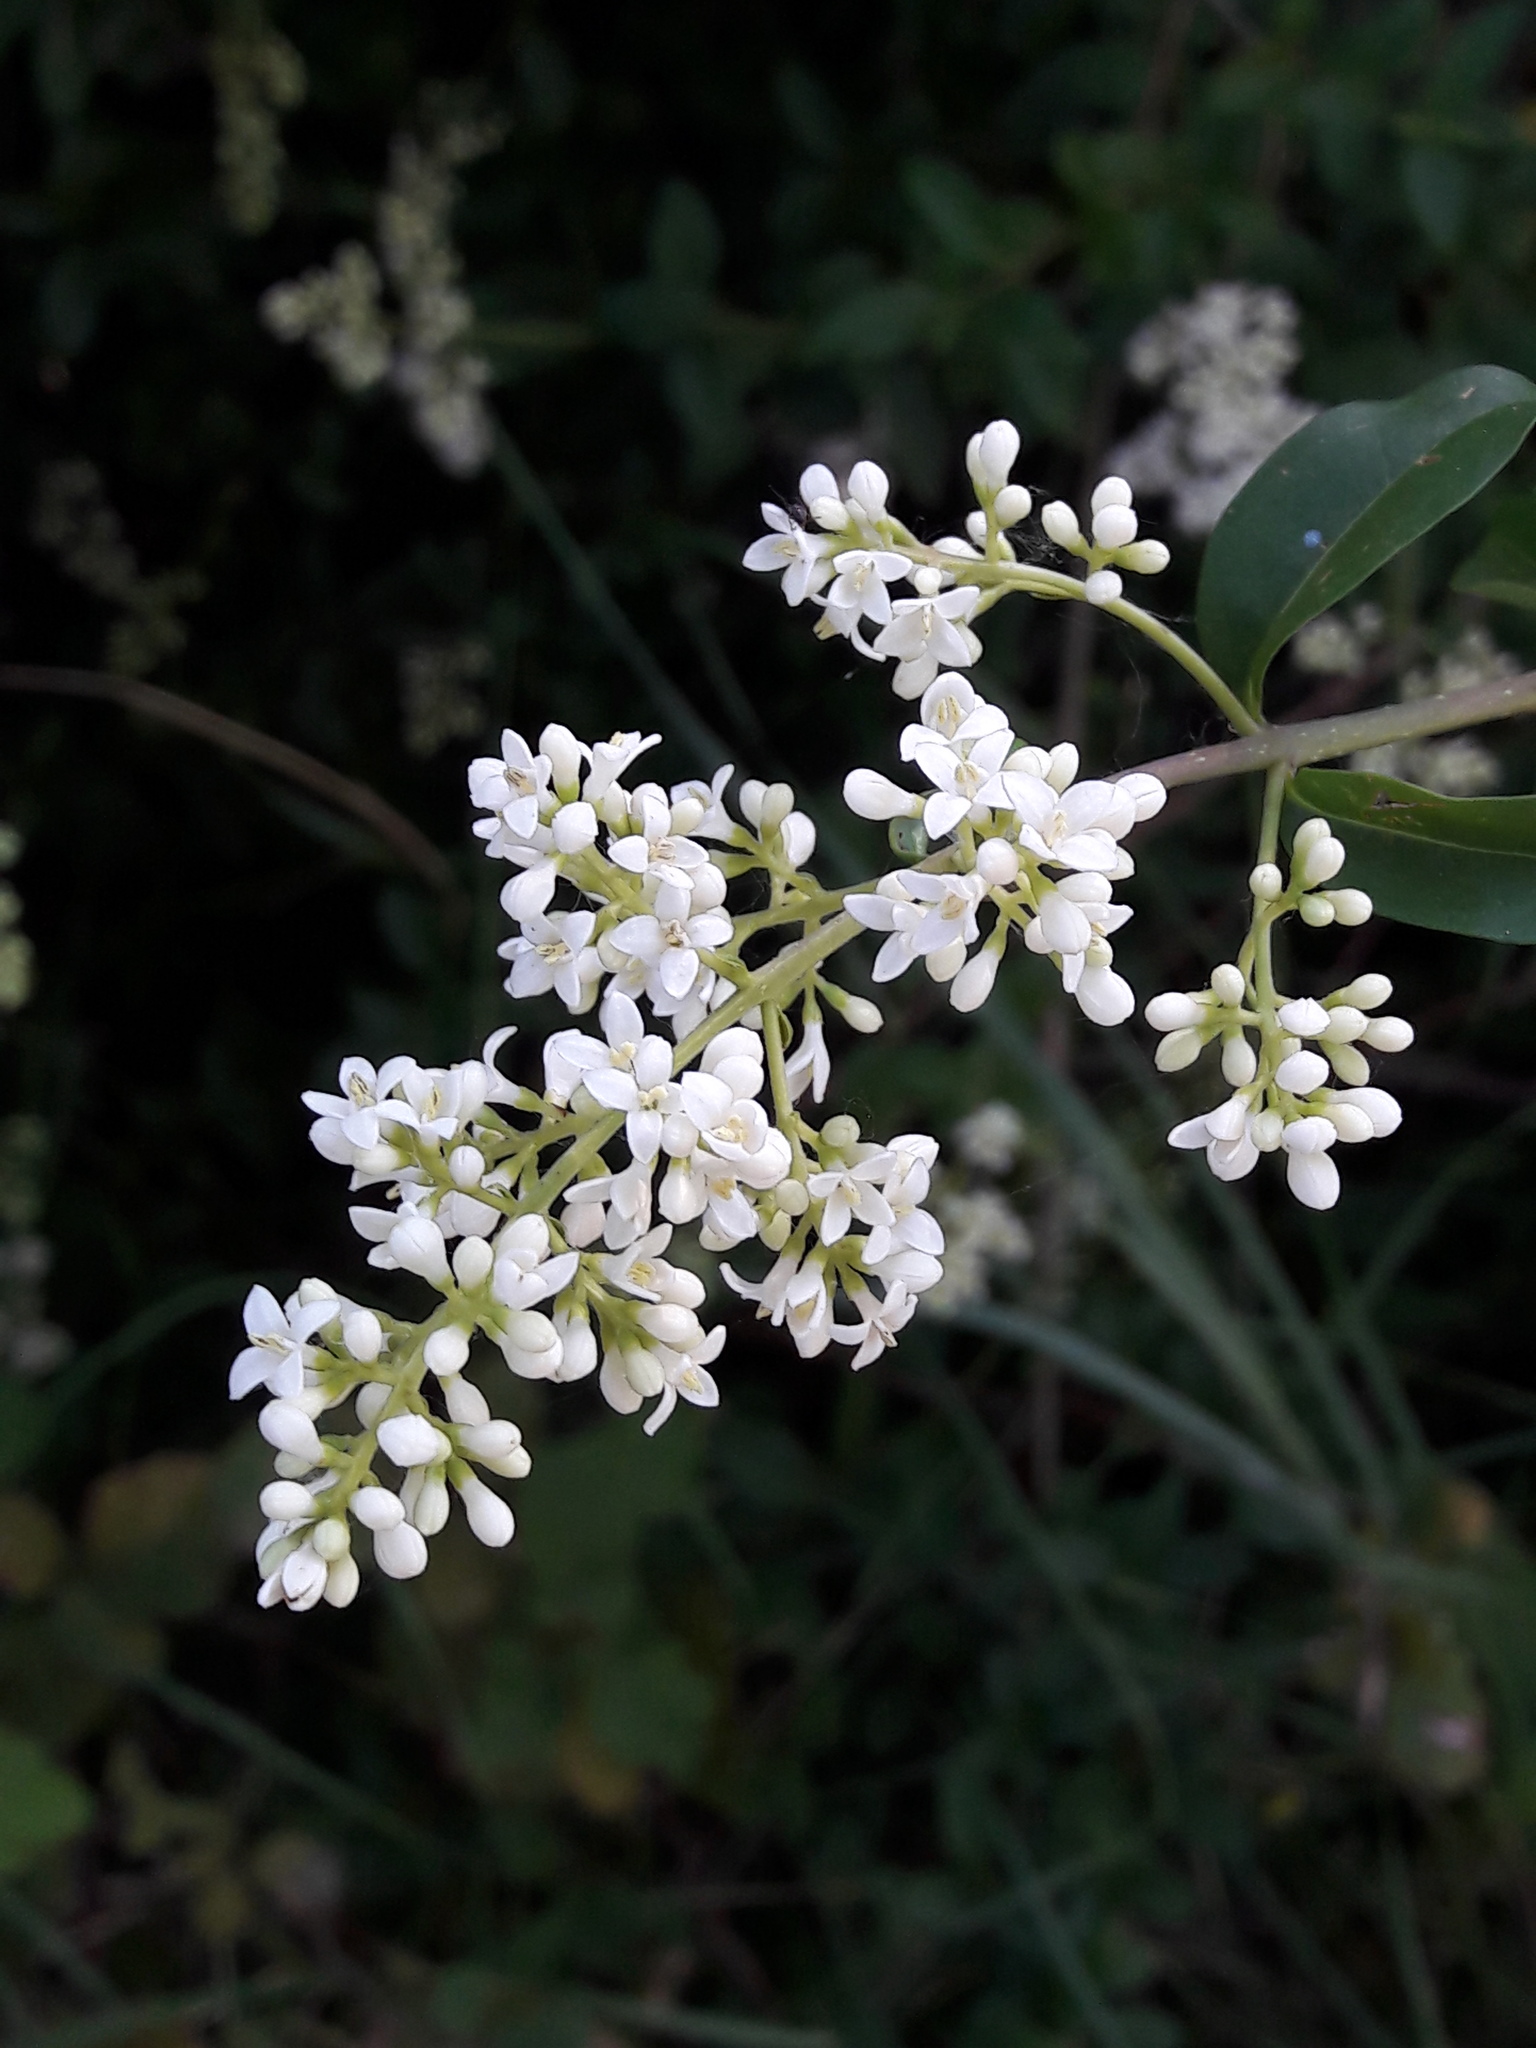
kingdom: Plantae
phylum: Tracheophyta
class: Magnoliopsida
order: Lamiales
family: Oleaceae
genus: Ligustrum
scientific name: Ligustrum vulgare
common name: Wild privet
